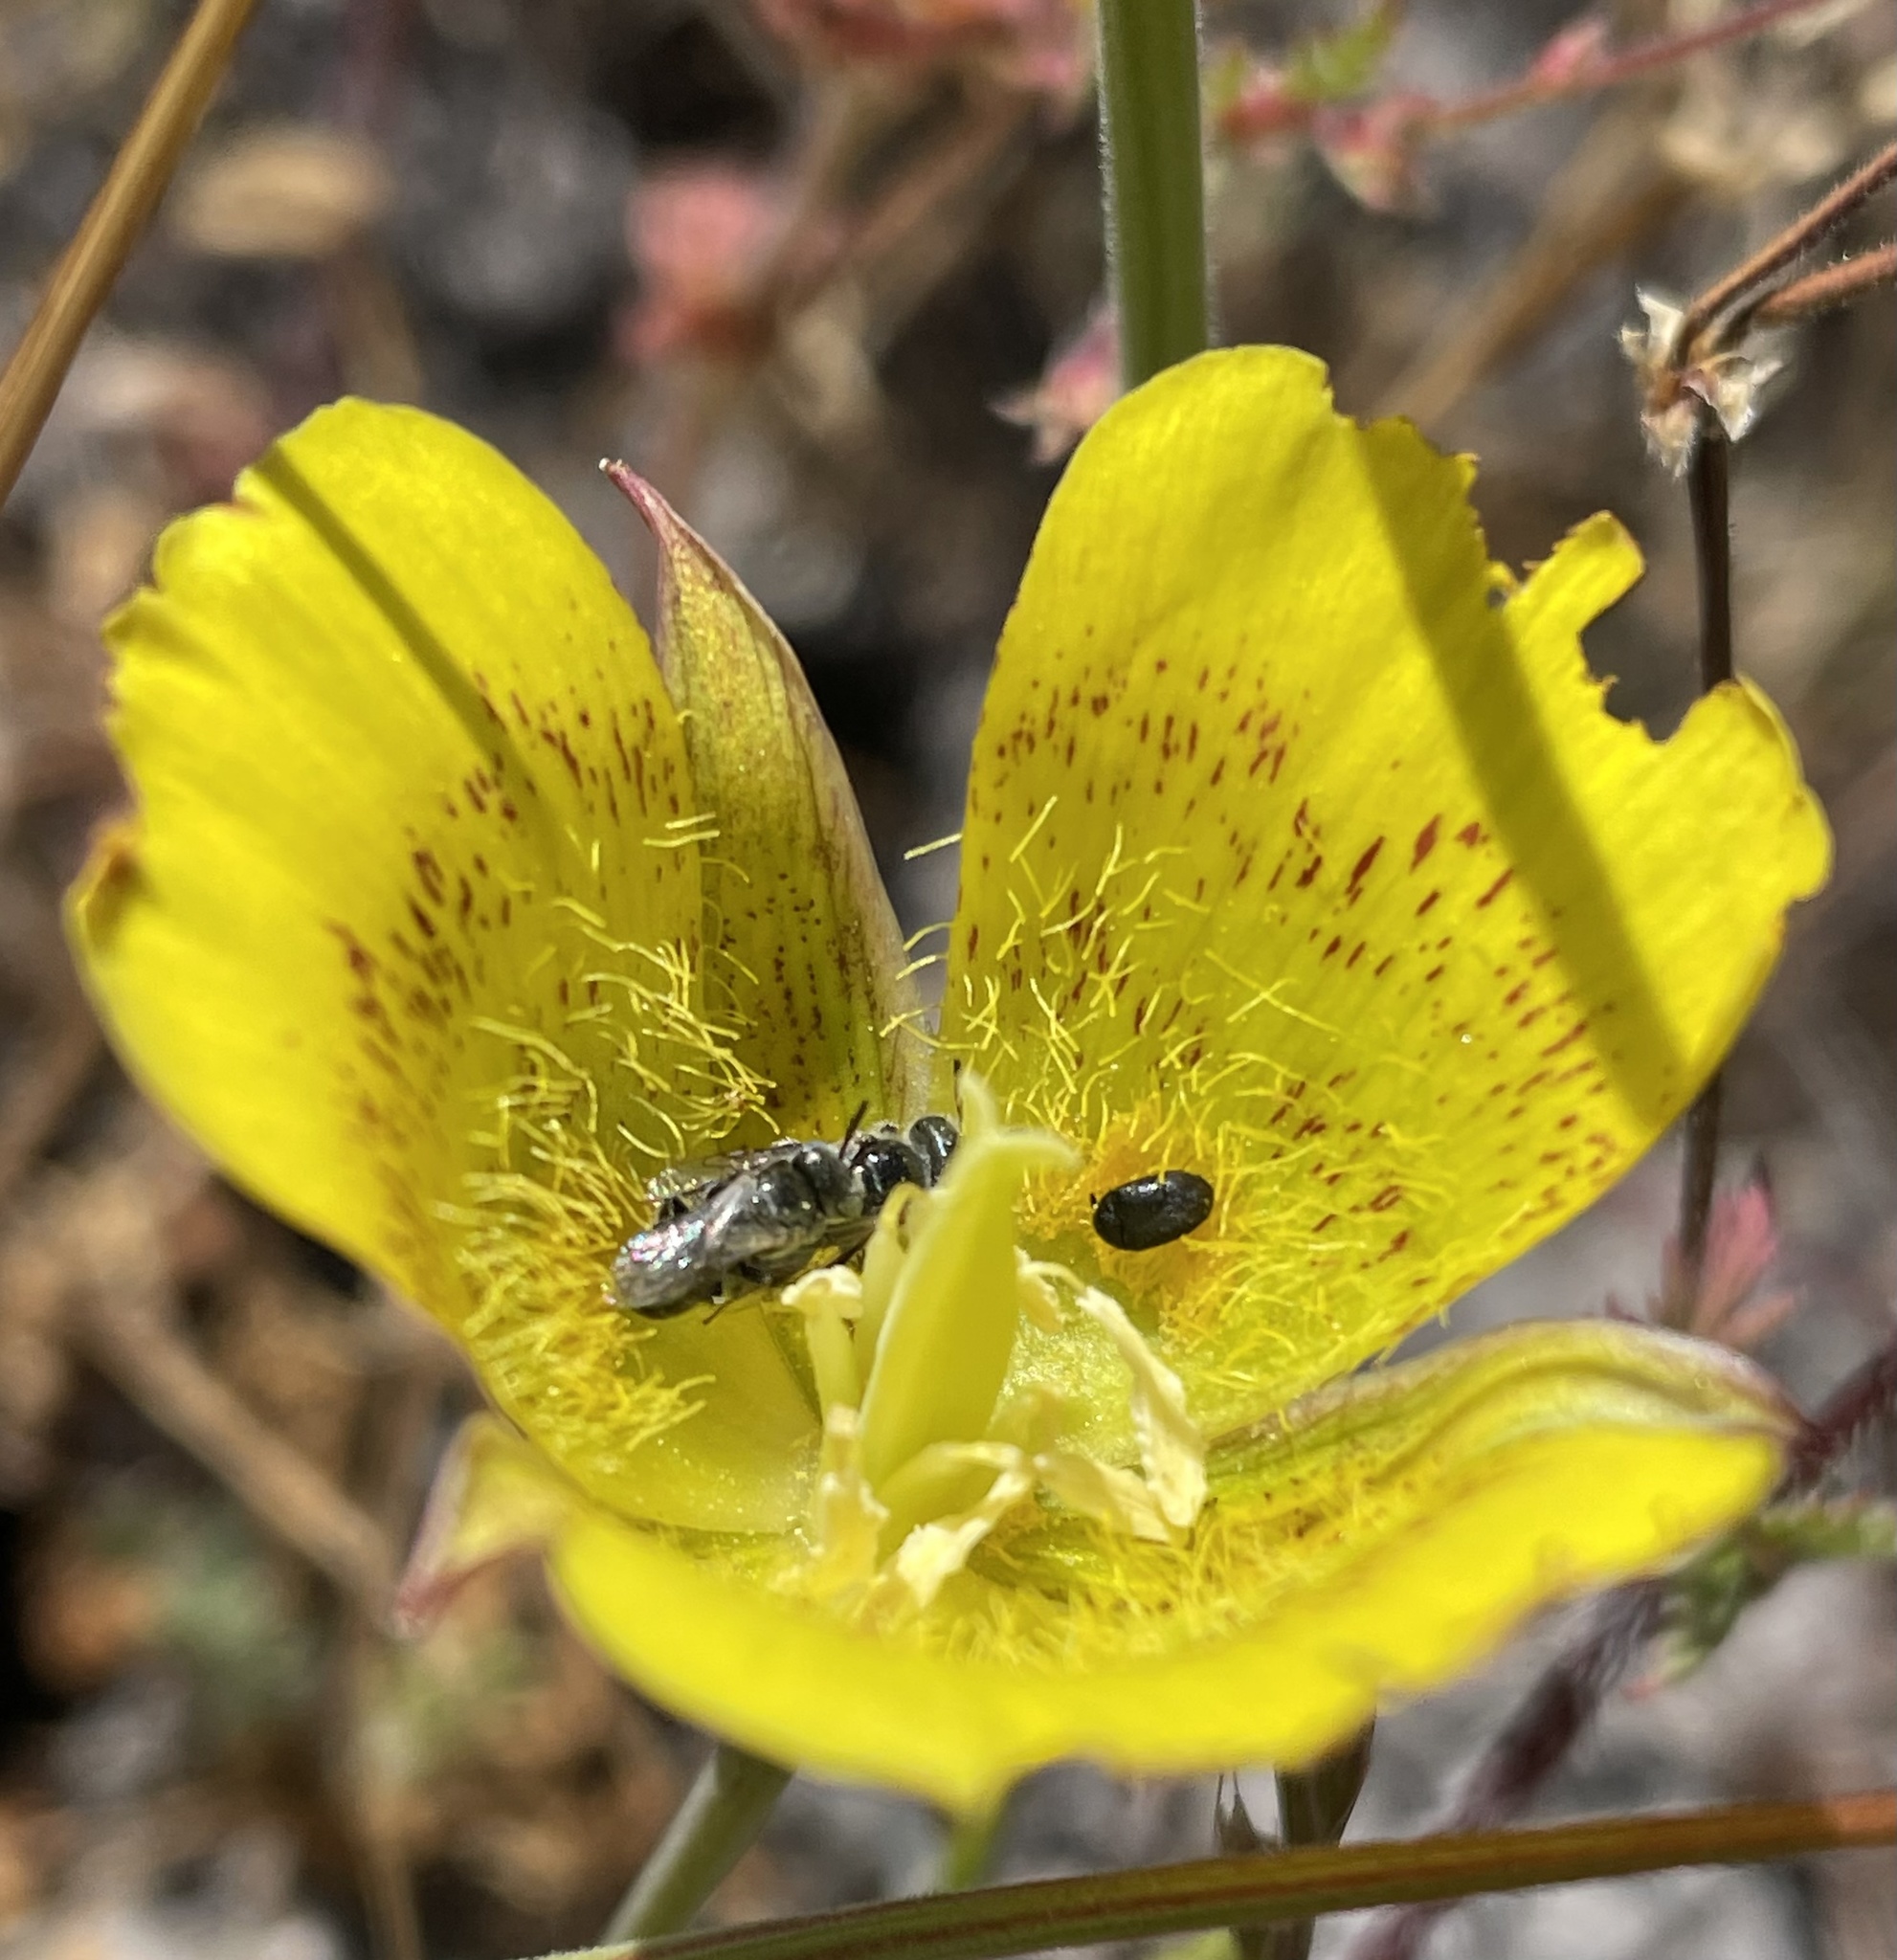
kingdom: Plantae
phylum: Tracheophyta
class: Liliopsida
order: Liliales
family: Liliaceae
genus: Calochortus
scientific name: Calochortus luteus
